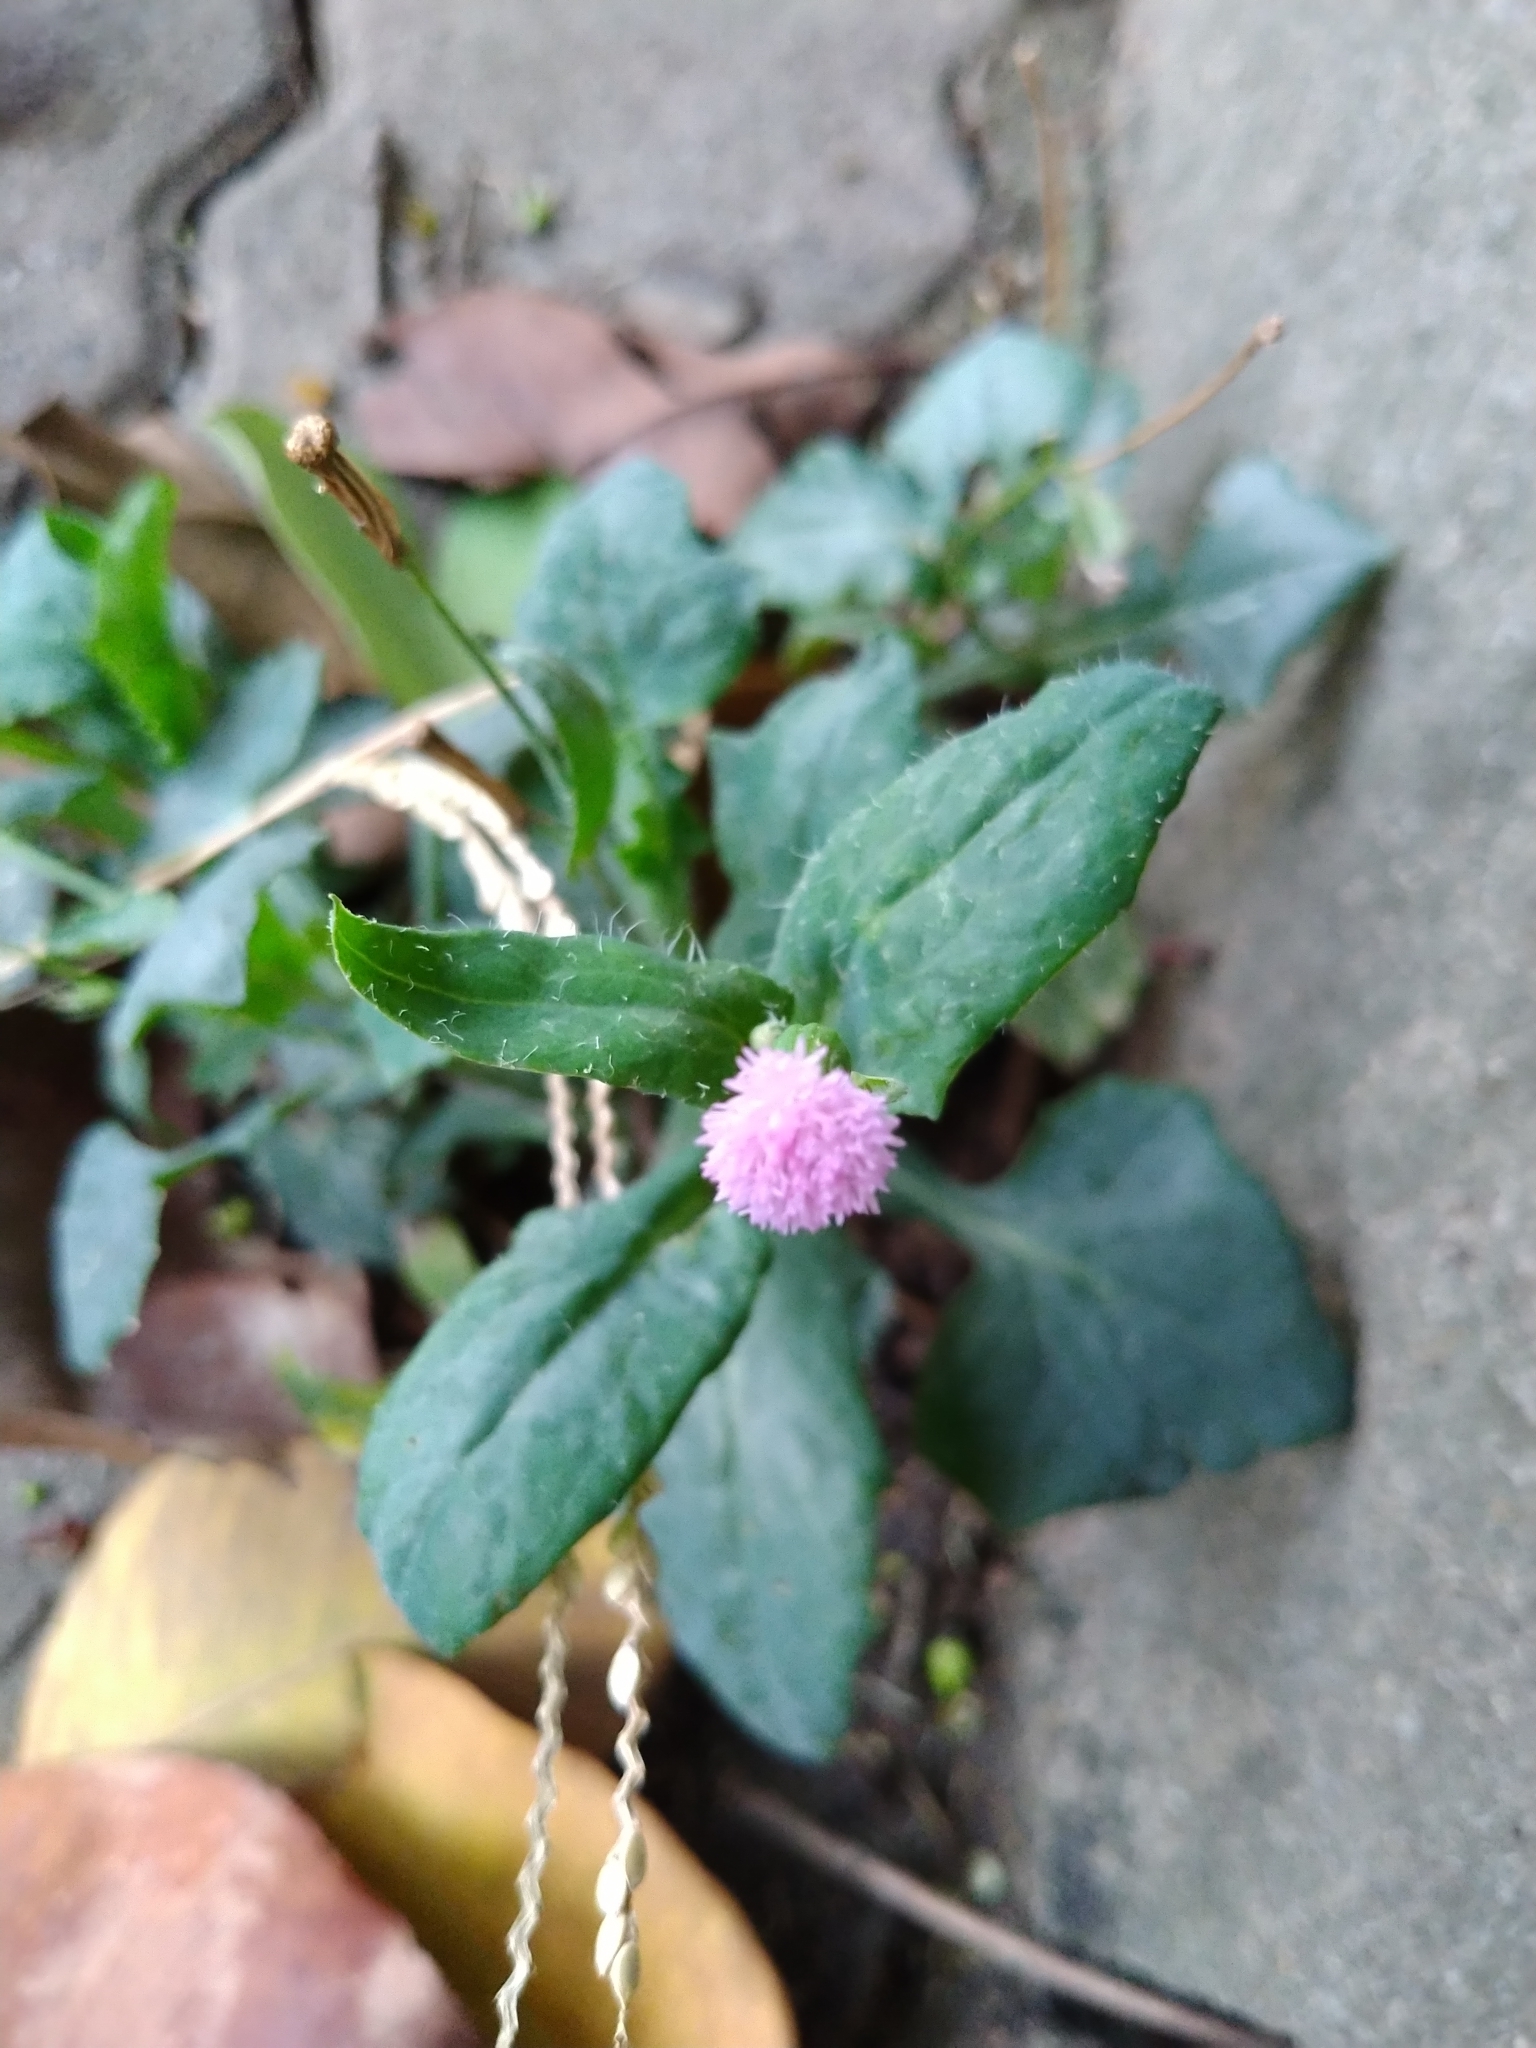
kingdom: Plantae
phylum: Tracheophyta
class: Magnoliopsida
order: Asterales
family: Asteraceae
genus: Emilia
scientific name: Emilia javanica
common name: Tassel-flower
